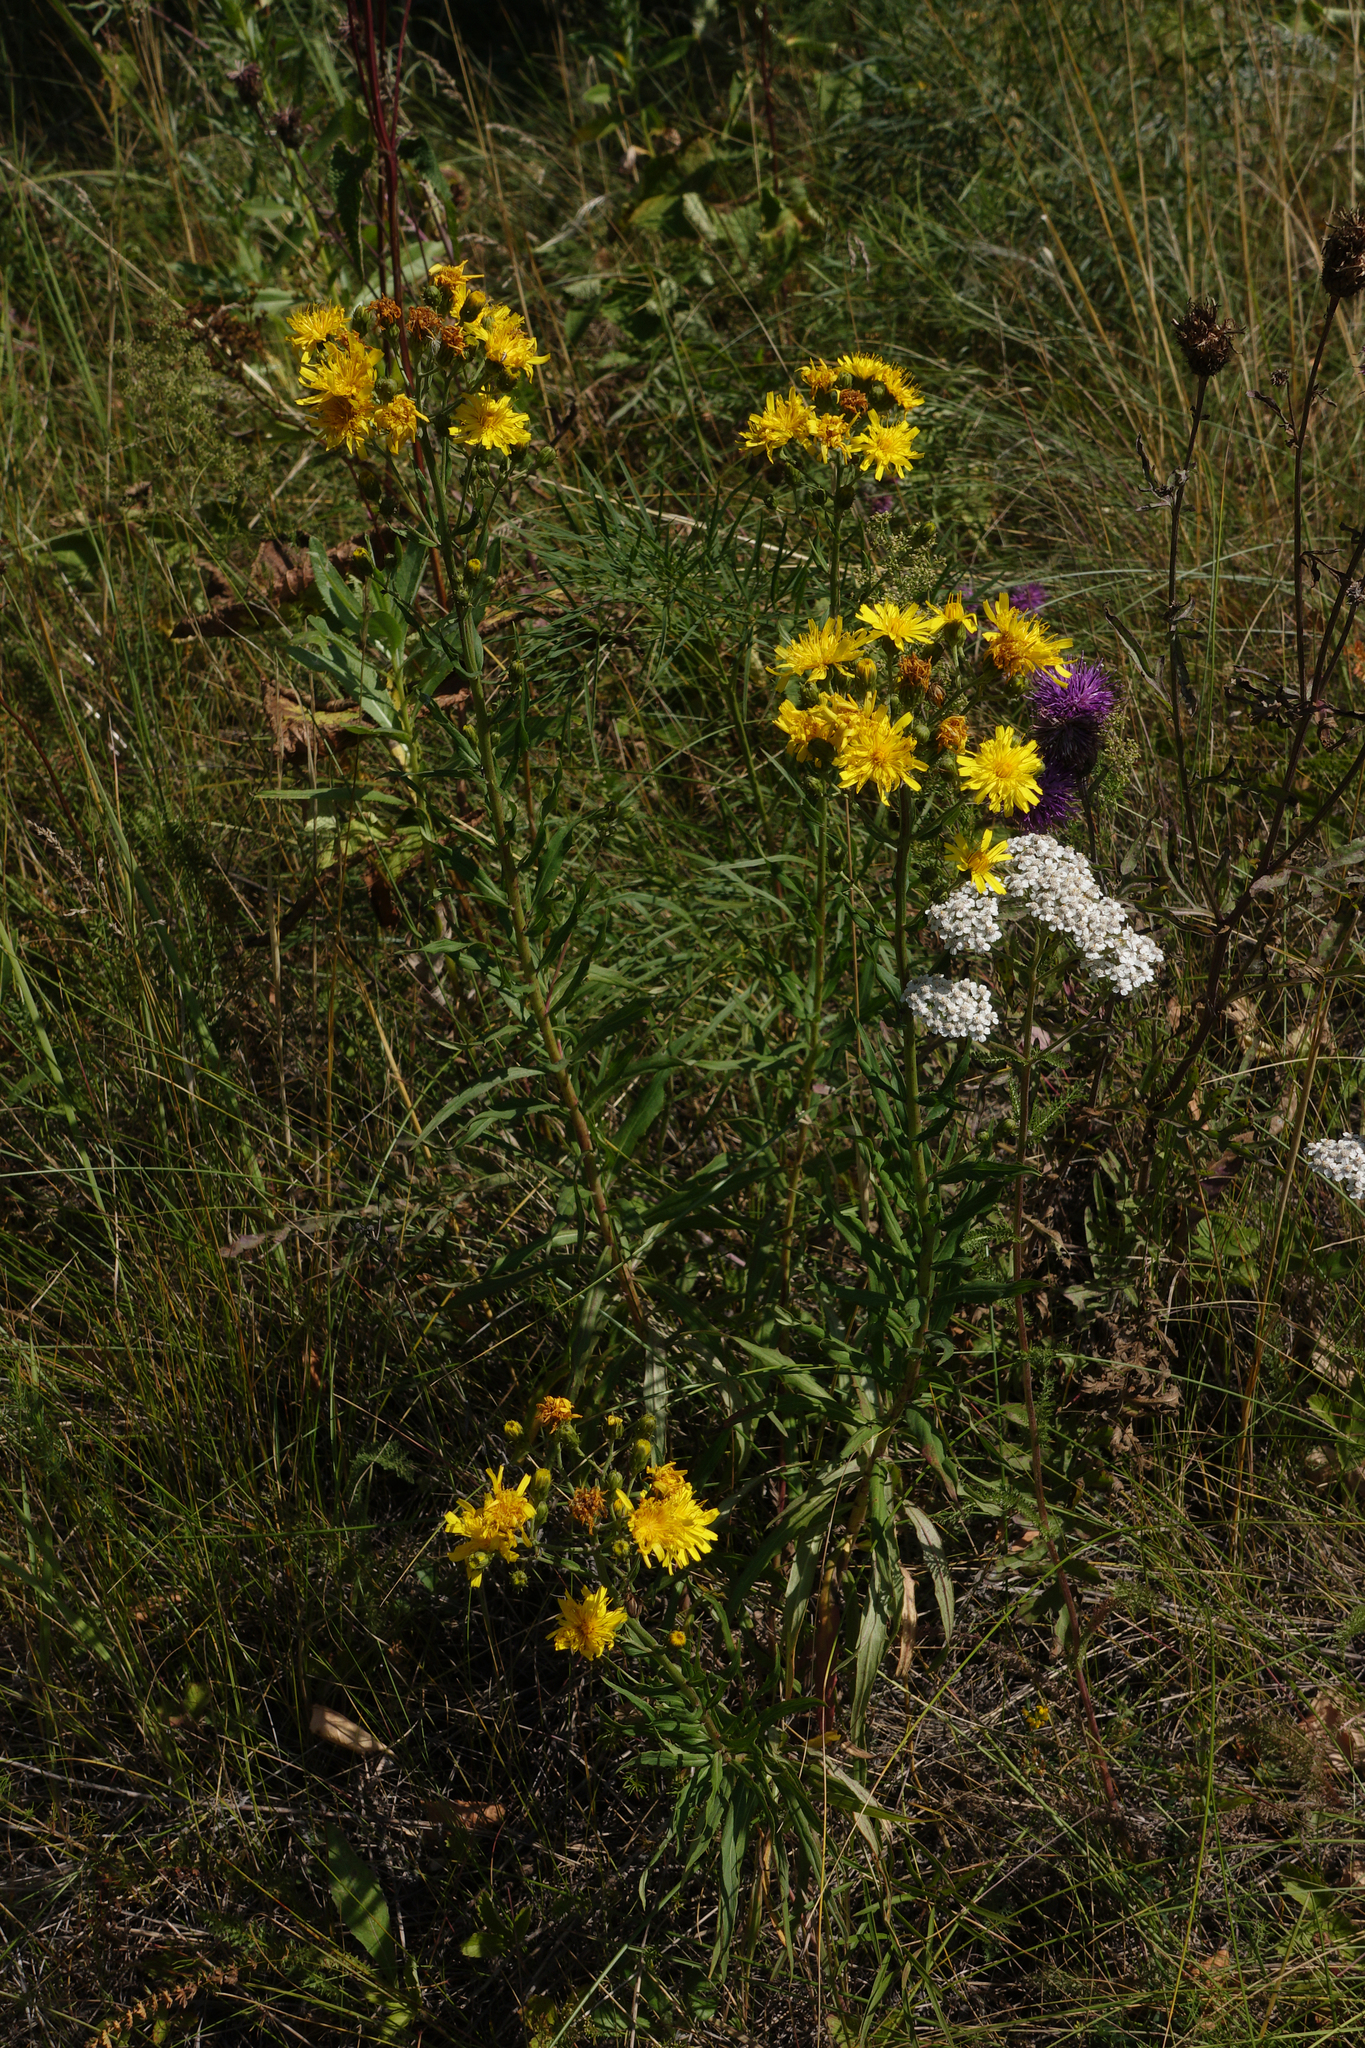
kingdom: Plantae
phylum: Tracheophyta
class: Magnoliopsida
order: Asterales
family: Asteraceae
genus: Hieracium
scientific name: Hieracium umbellatum
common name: Northern hawkweed
